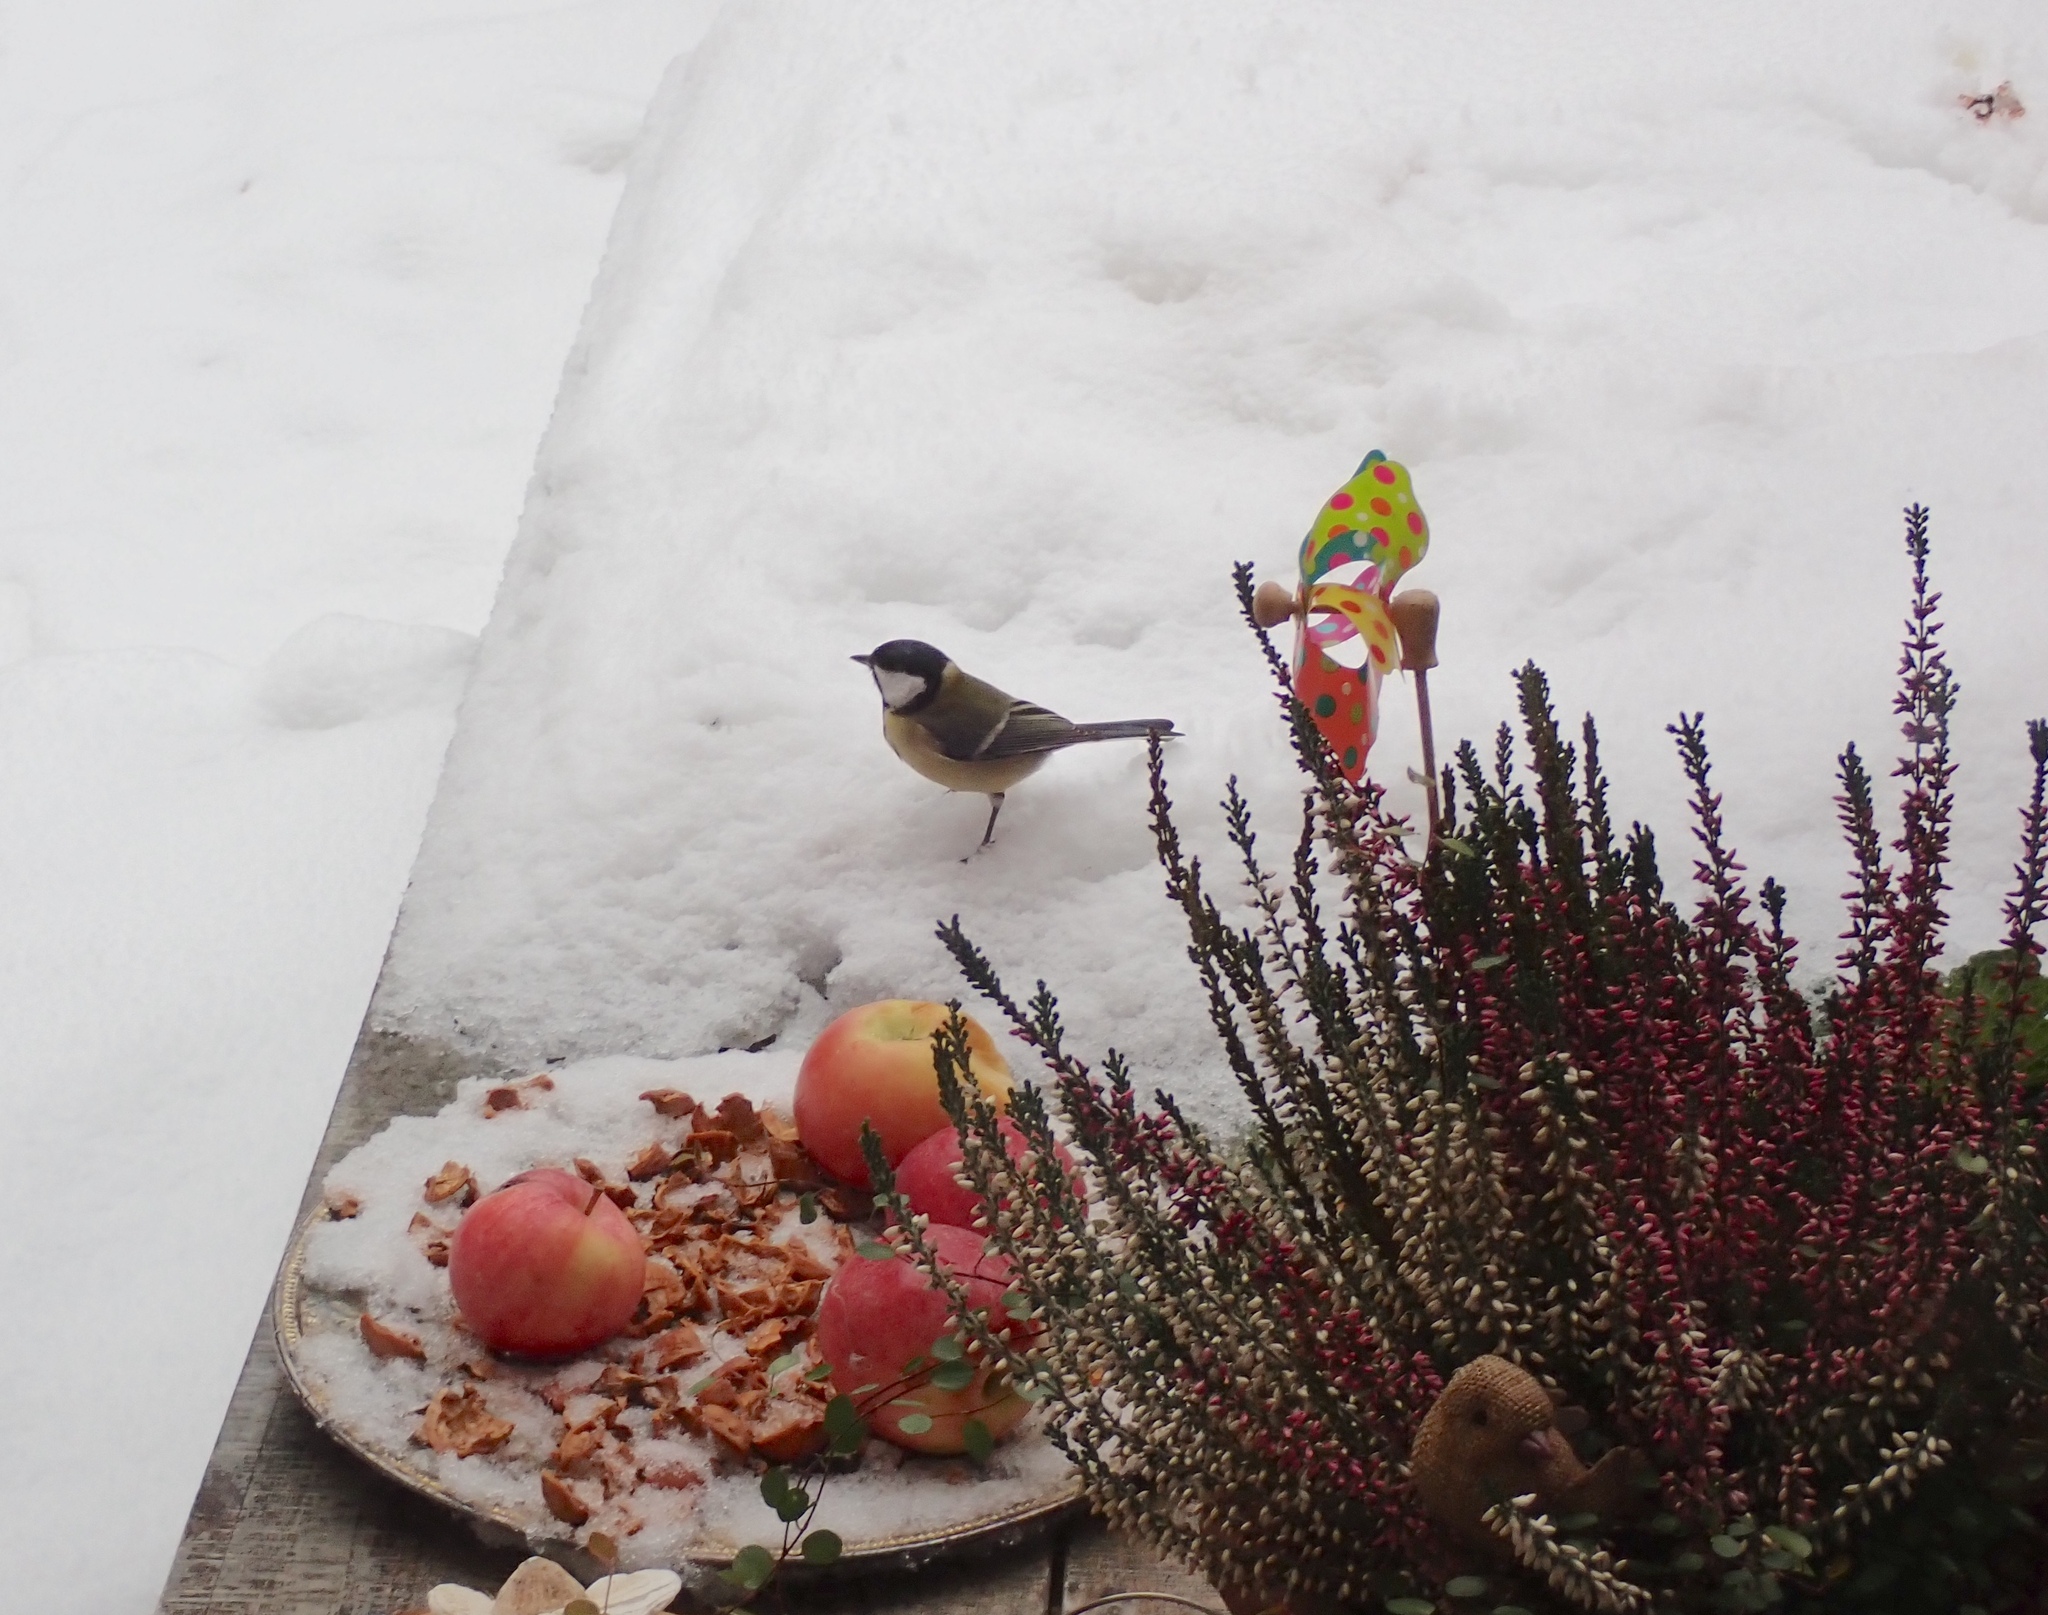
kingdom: Animalia
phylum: Chordata
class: Aves
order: Passeriformes
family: Paridae
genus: Parus
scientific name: Parus major
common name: Great tit
